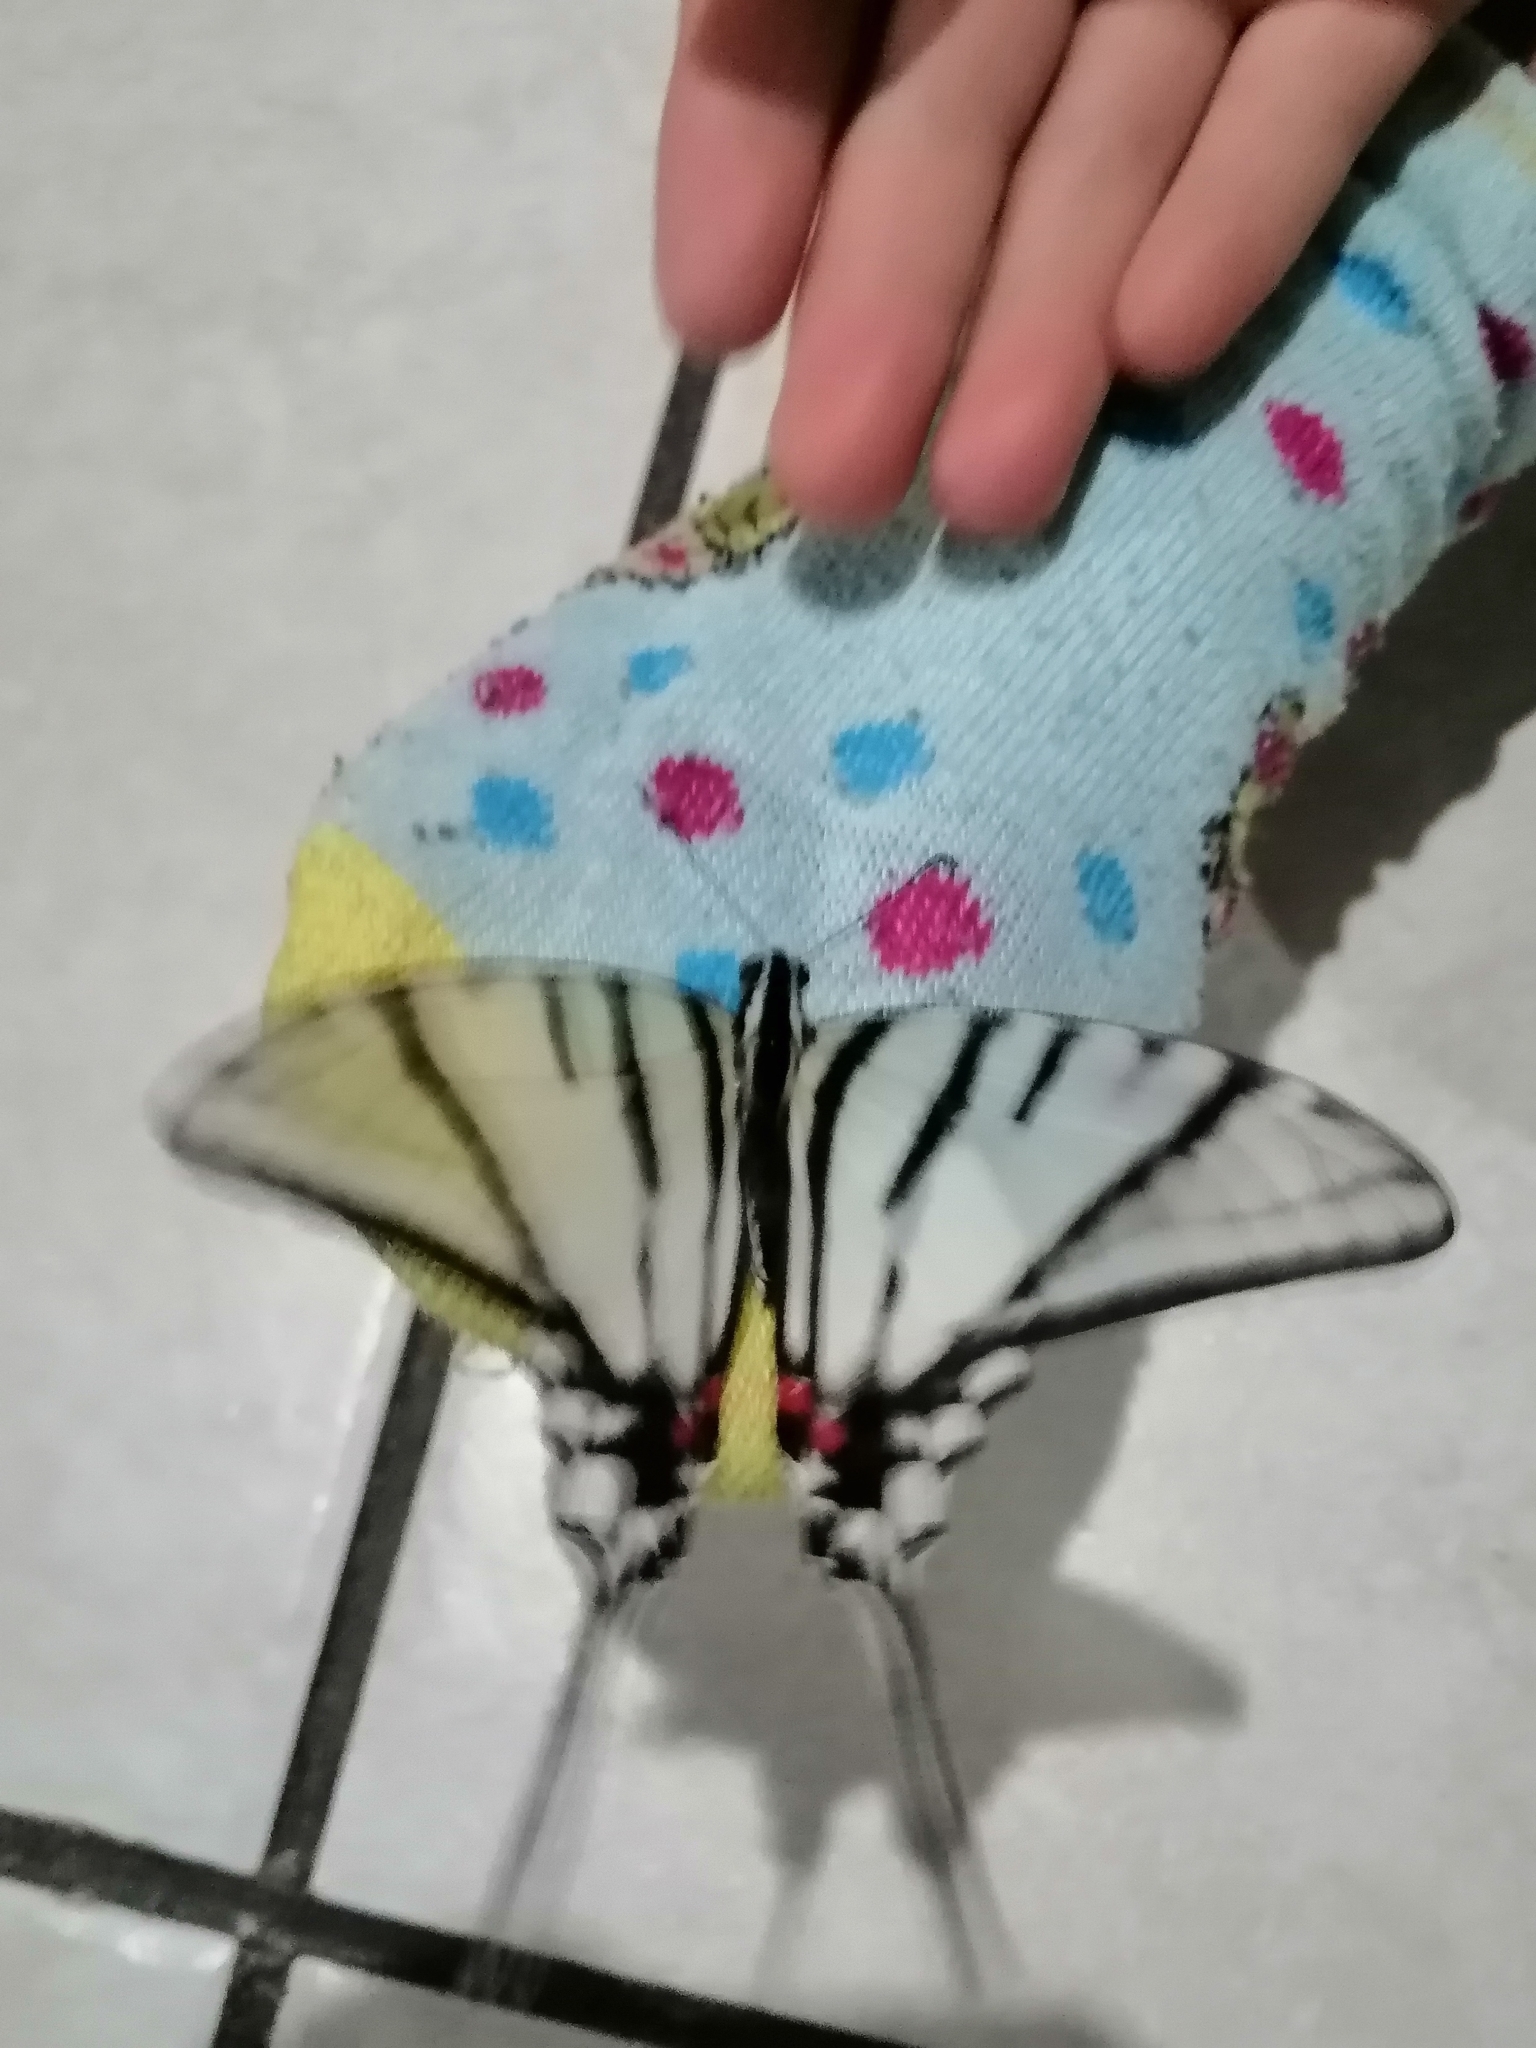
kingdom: Animalia
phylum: Arthropoda
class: Insecta
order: Lepidoptera
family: Papilionidae
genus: Protographium
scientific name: Protographium epidaus
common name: Mexican kite swallowtail
